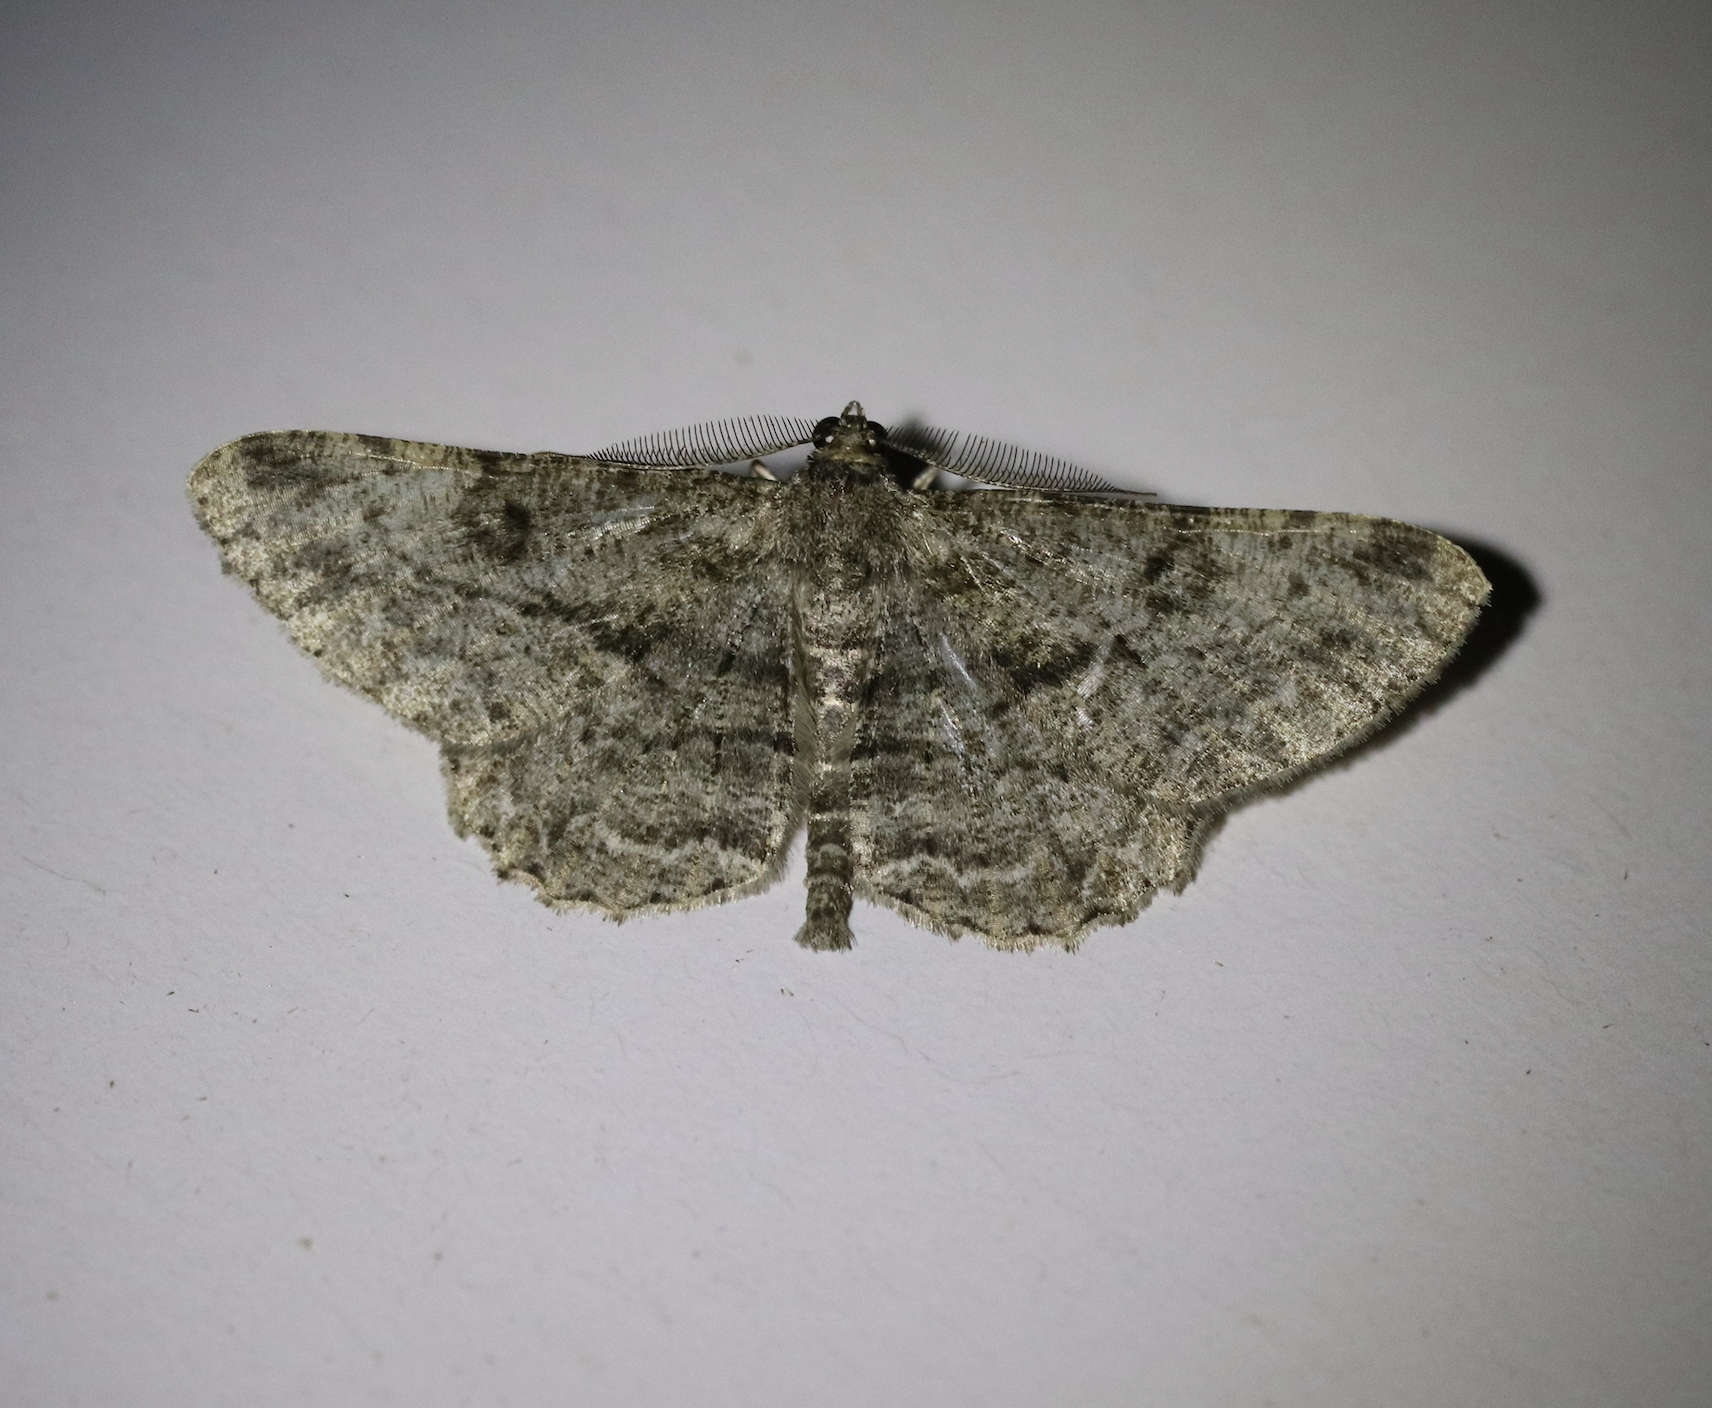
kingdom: Animalia
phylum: Arthropoda
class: Insecta
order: Lepidoptera
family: Geometridae
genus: Peribatodes
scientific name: Peribatodes rhomboidaria
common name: Willow beauty
